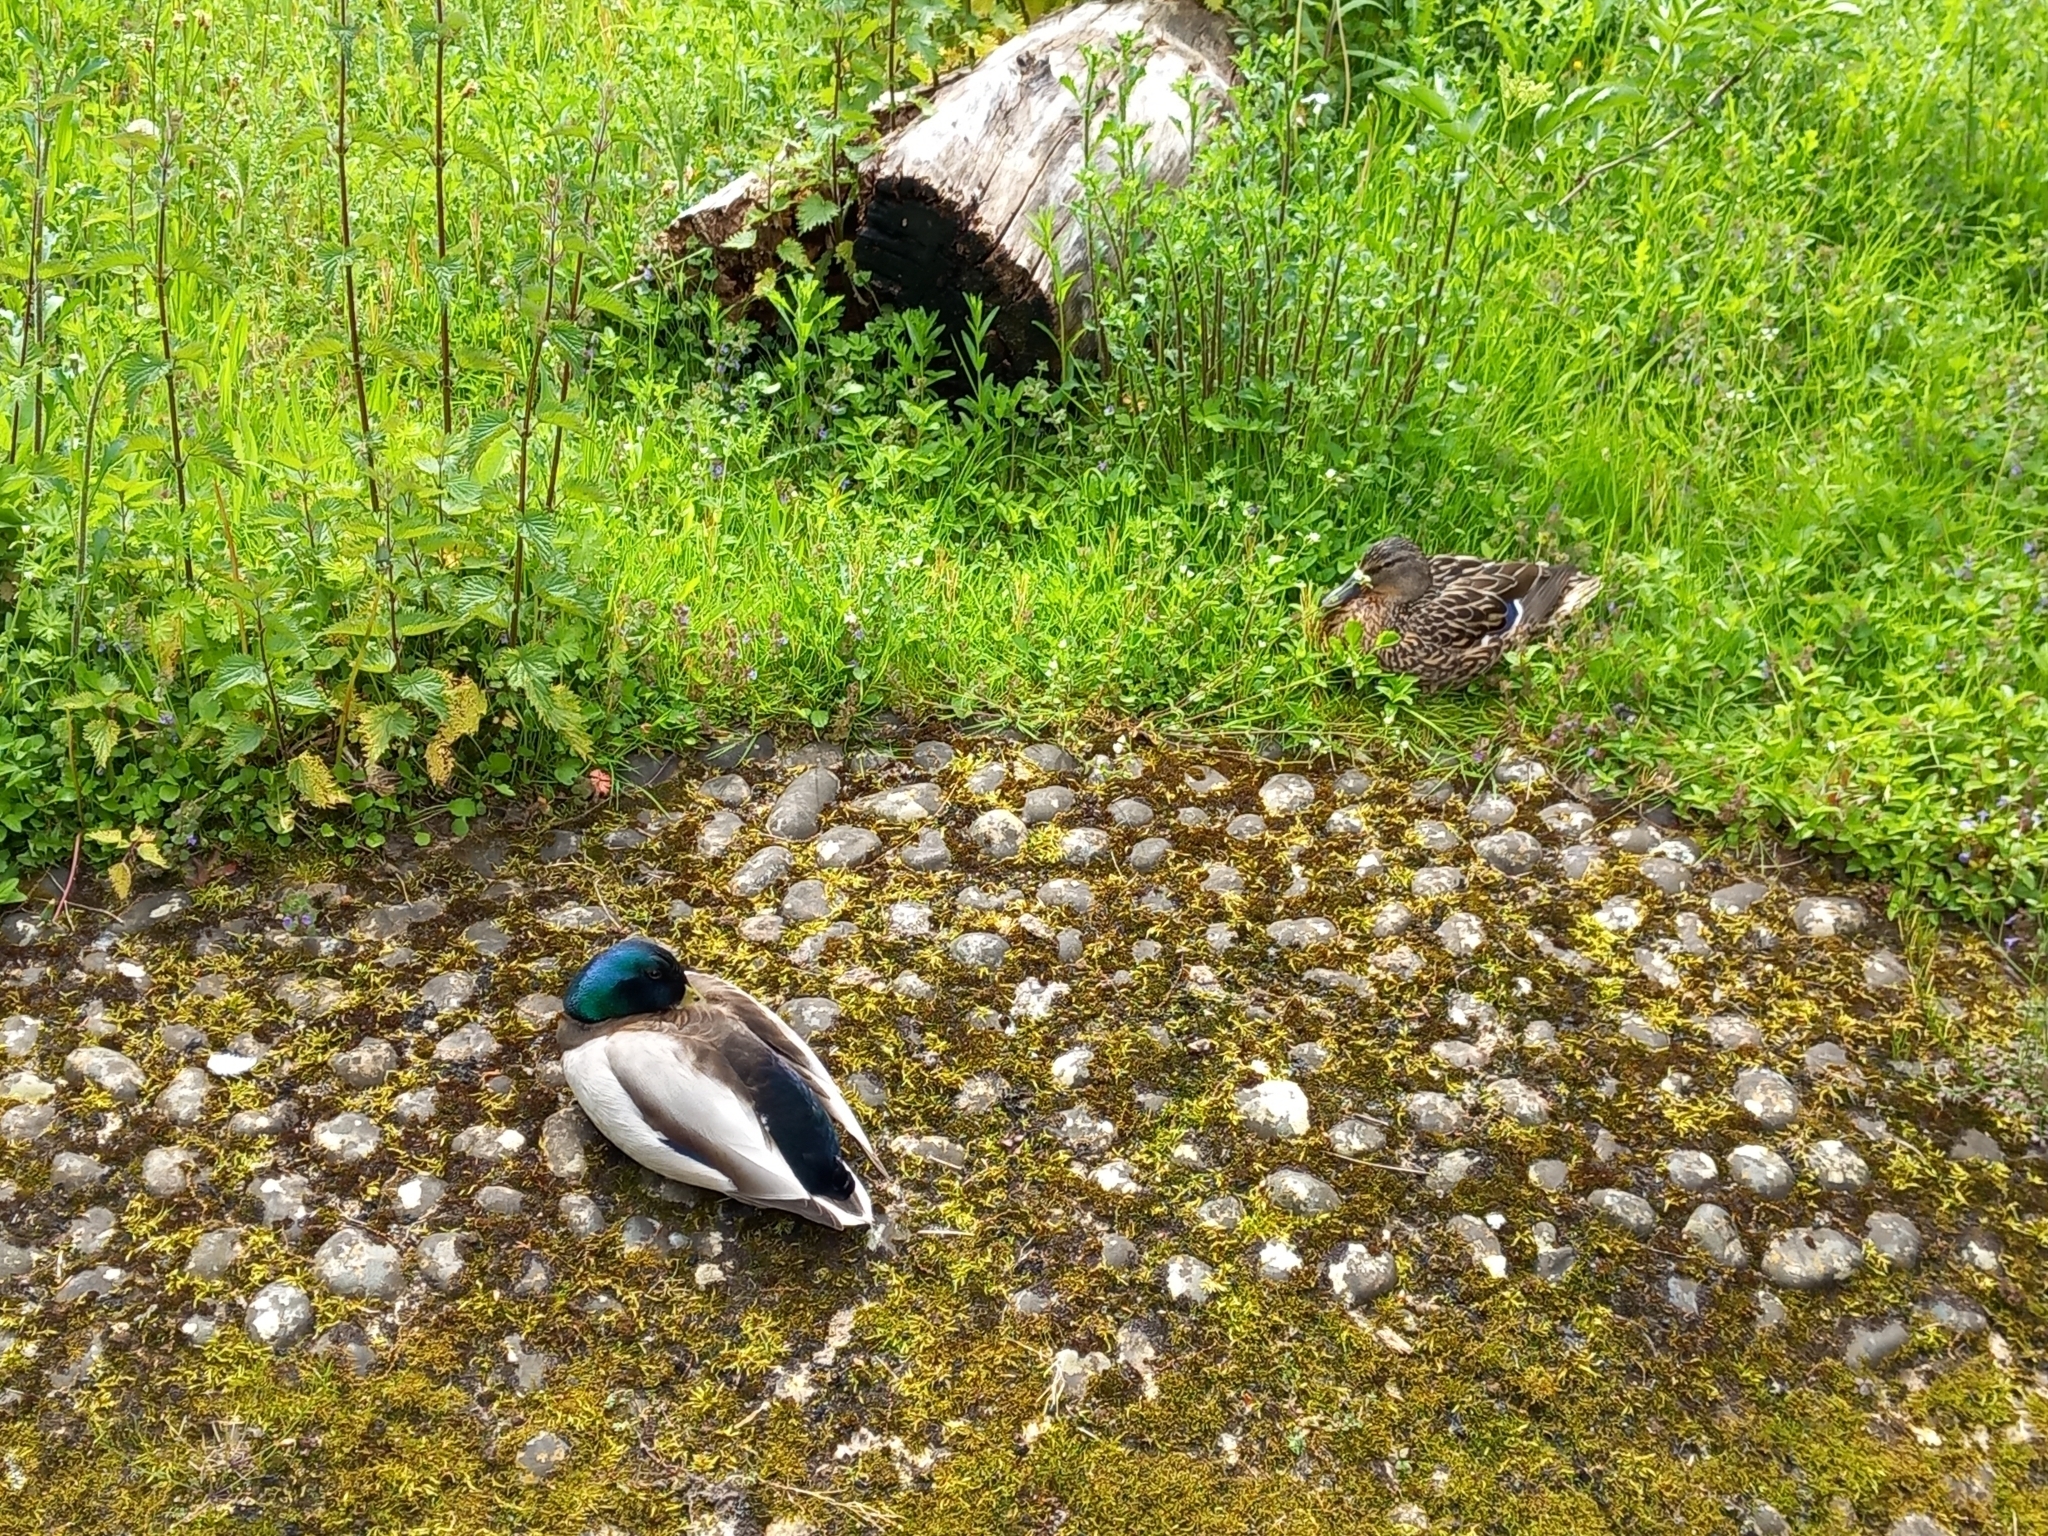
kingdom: Animalia
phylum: Chordata
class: Aves
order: Anseriformes
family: Anatidae
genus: Anas
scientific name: Anas platyrhynchos
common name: Mallard
